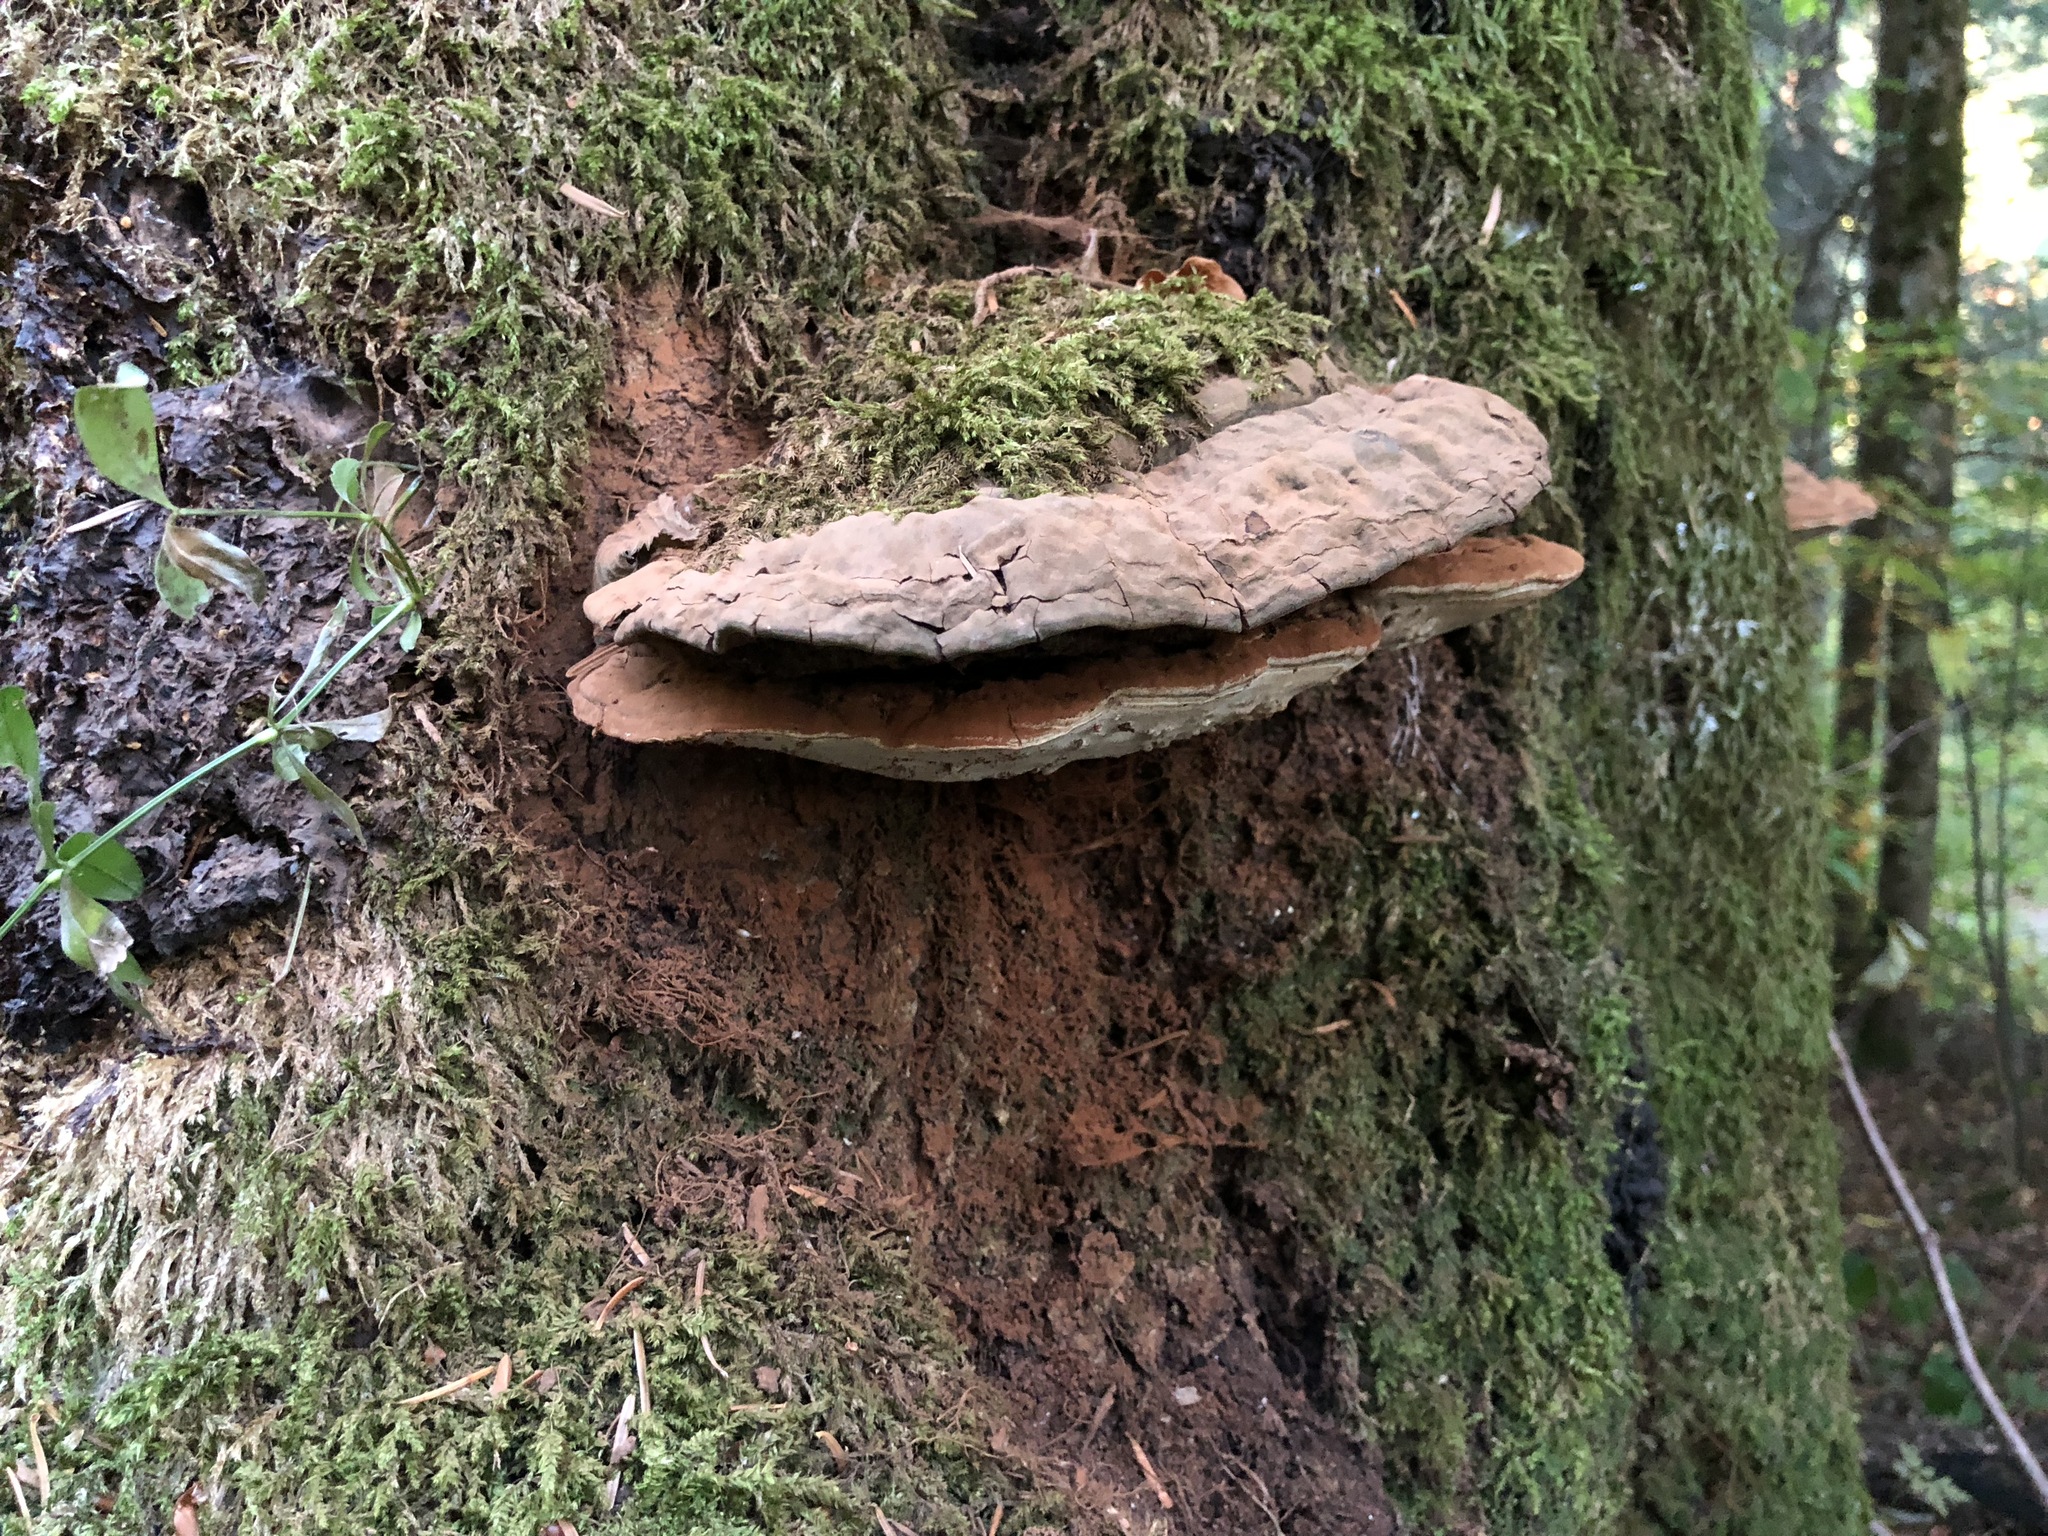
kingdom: Fungi
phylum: Basidiomycota
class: Agaricomycetes
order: Polyporales
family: Polyporaceae
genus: Ganoderma
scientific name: Ganoderma applanatum
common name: Artist's bracket
